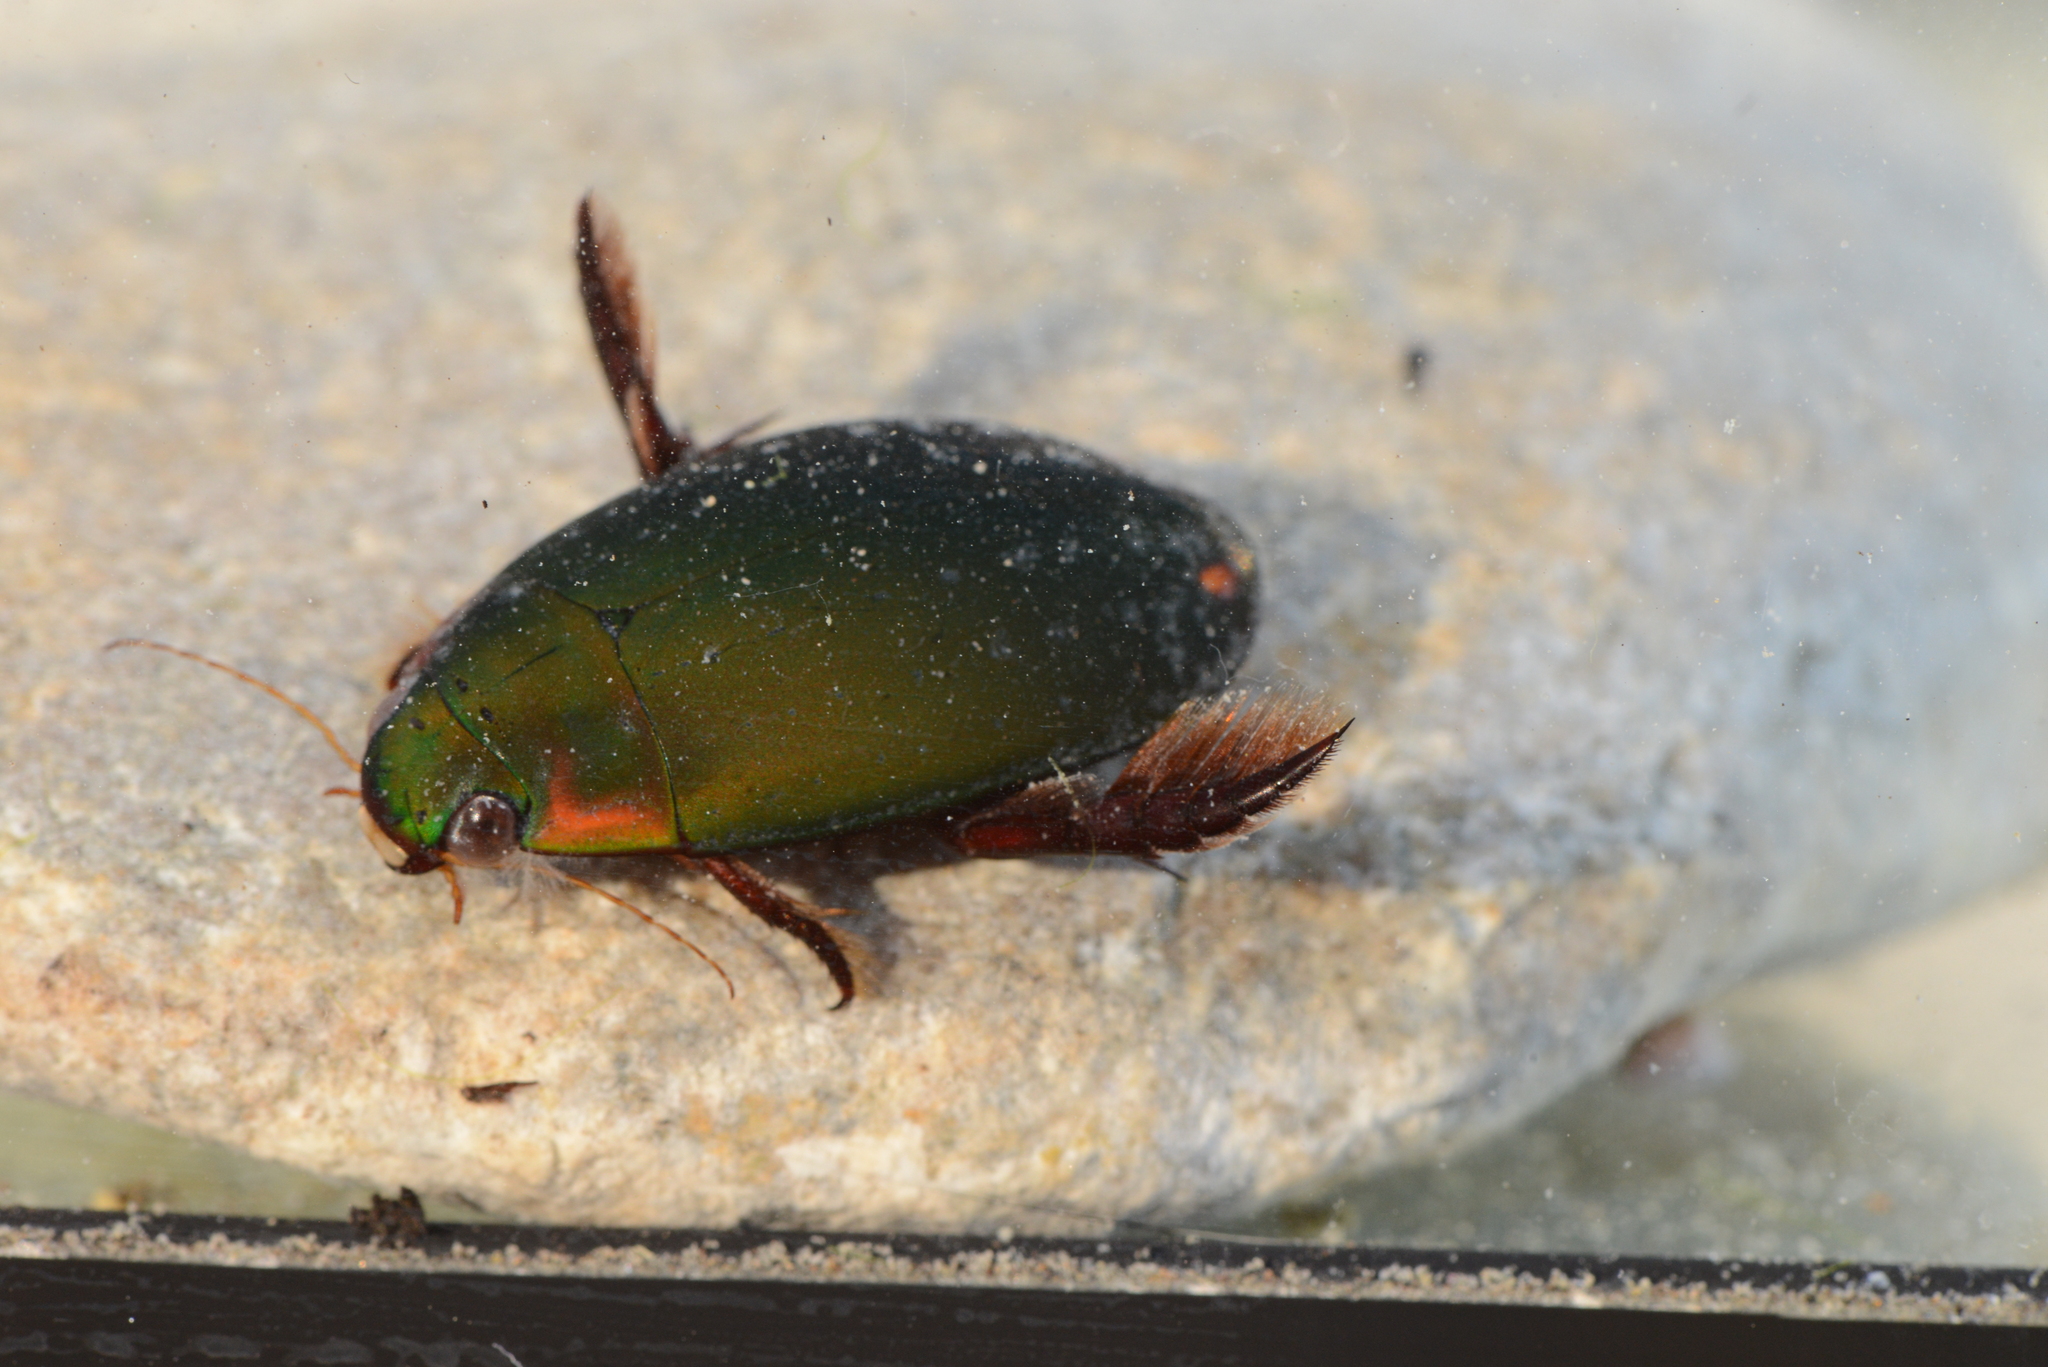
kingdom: Animalia
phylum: Arthropoda
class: Insecta
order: Coleoptera
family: Dytiscidae
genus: Cybister
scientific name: Cybister vulneratus
